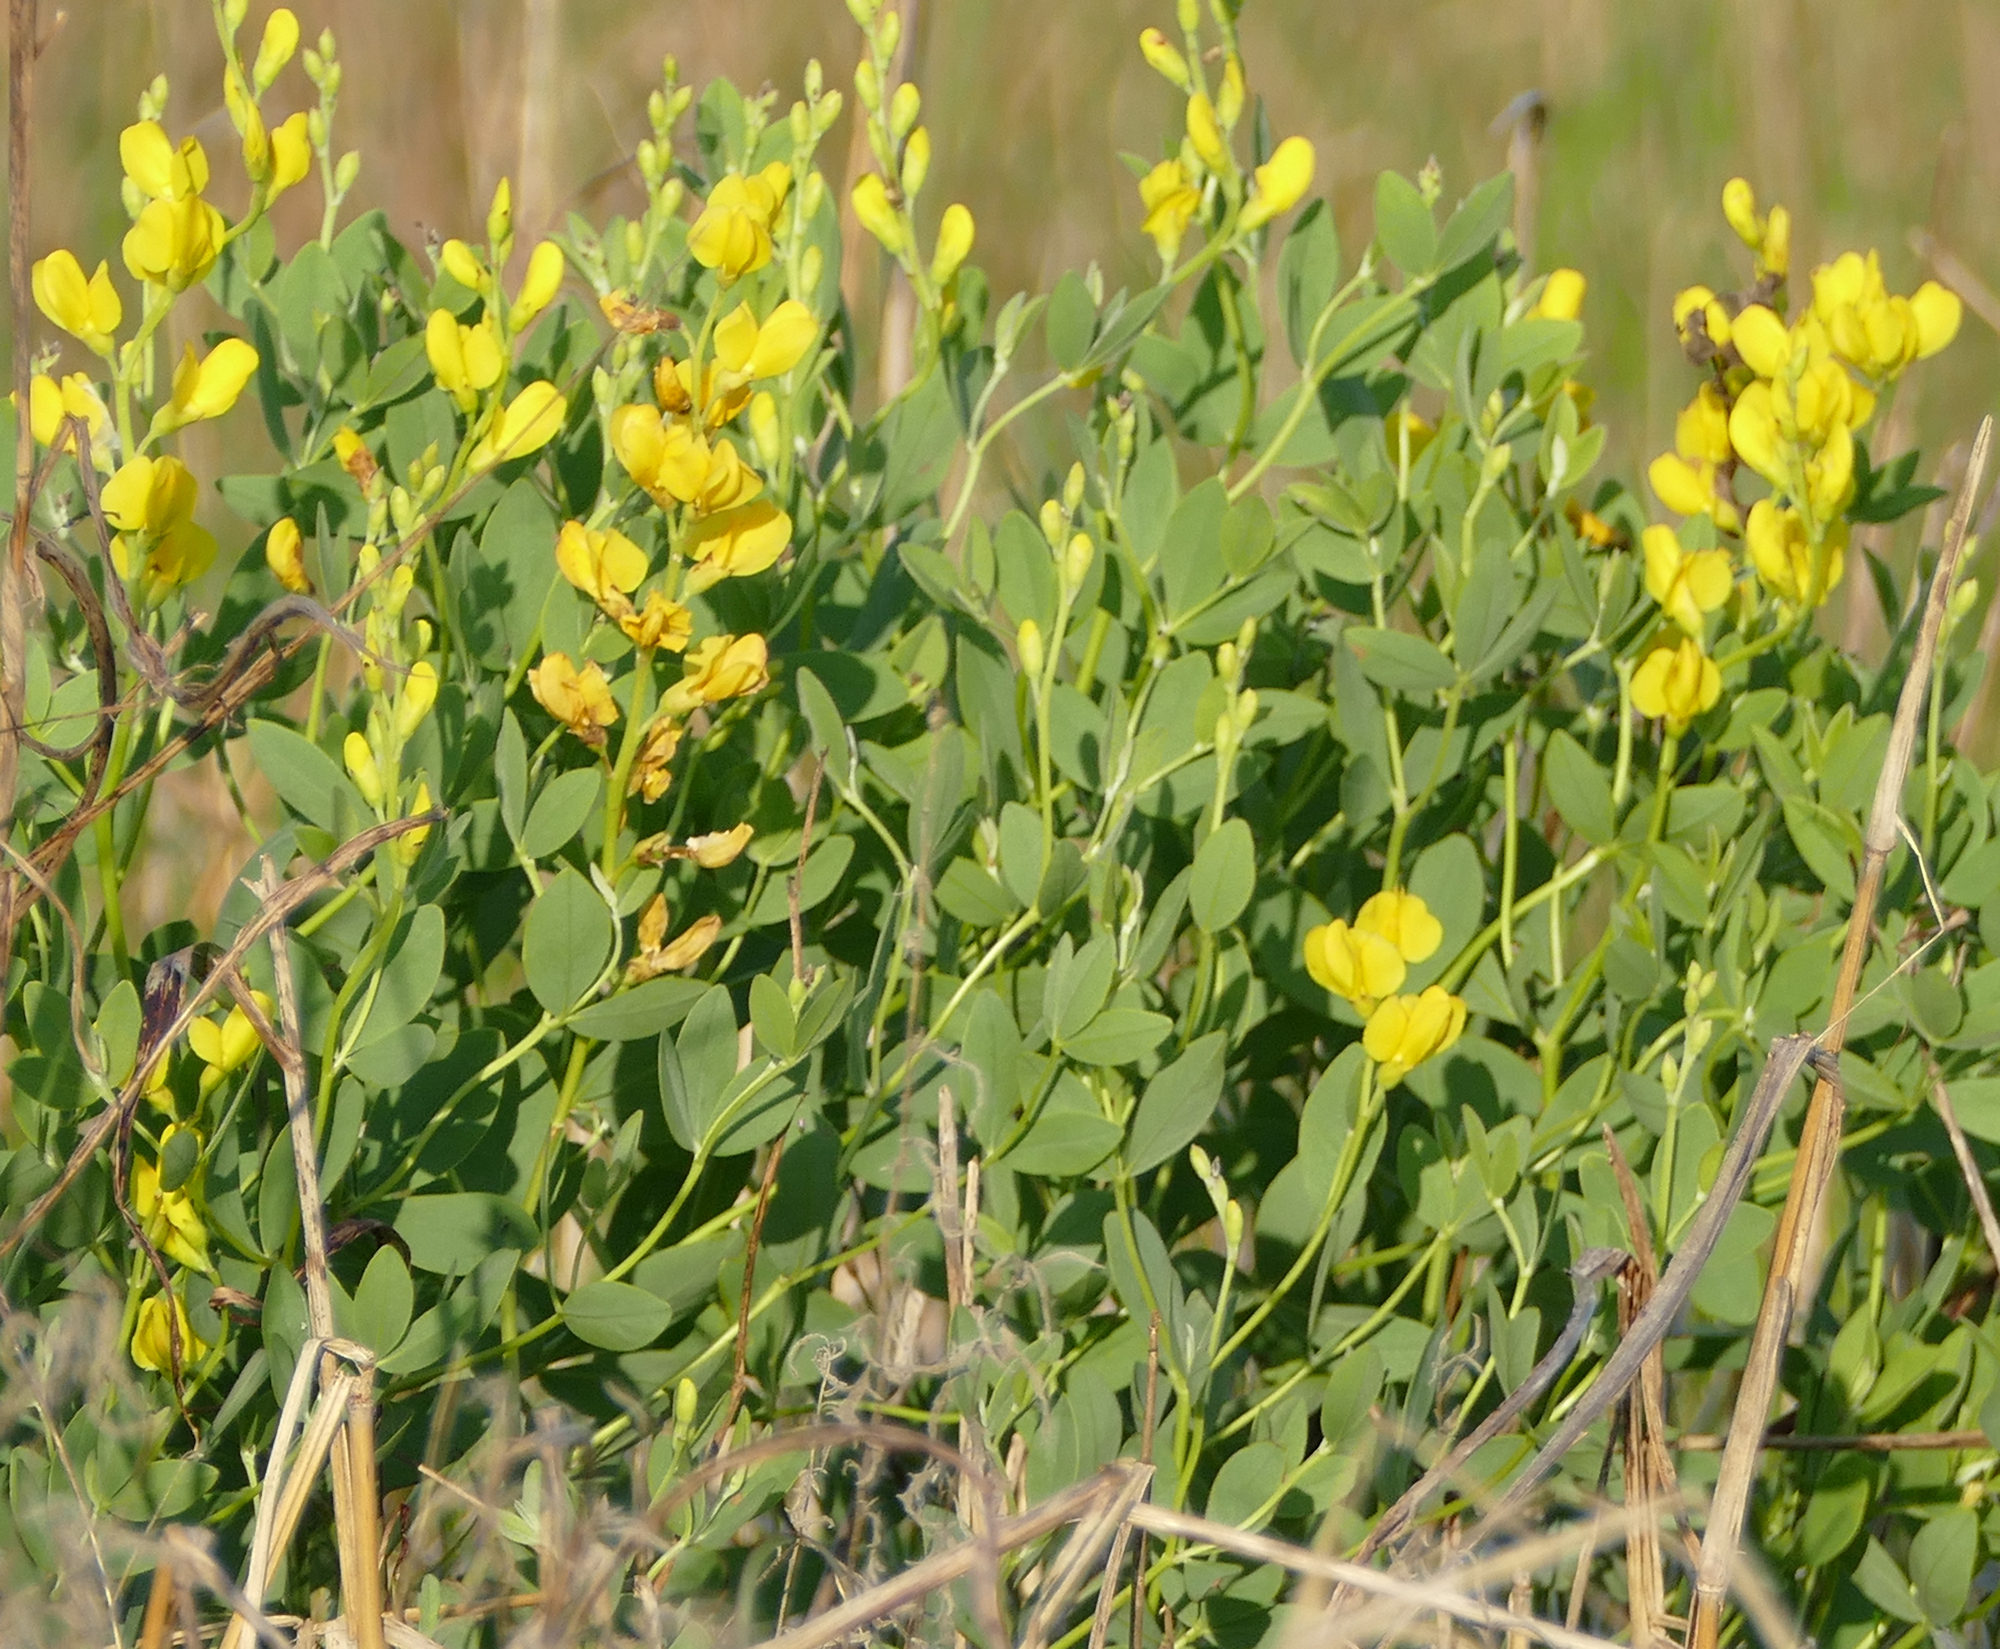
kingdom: Plantae
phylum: Tracheophyta
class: Magnoliopsida
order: Fabales
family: Fabaceae
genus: Baptisia
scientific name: Baptisia sphaerocarpa
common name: Round wild indigo
